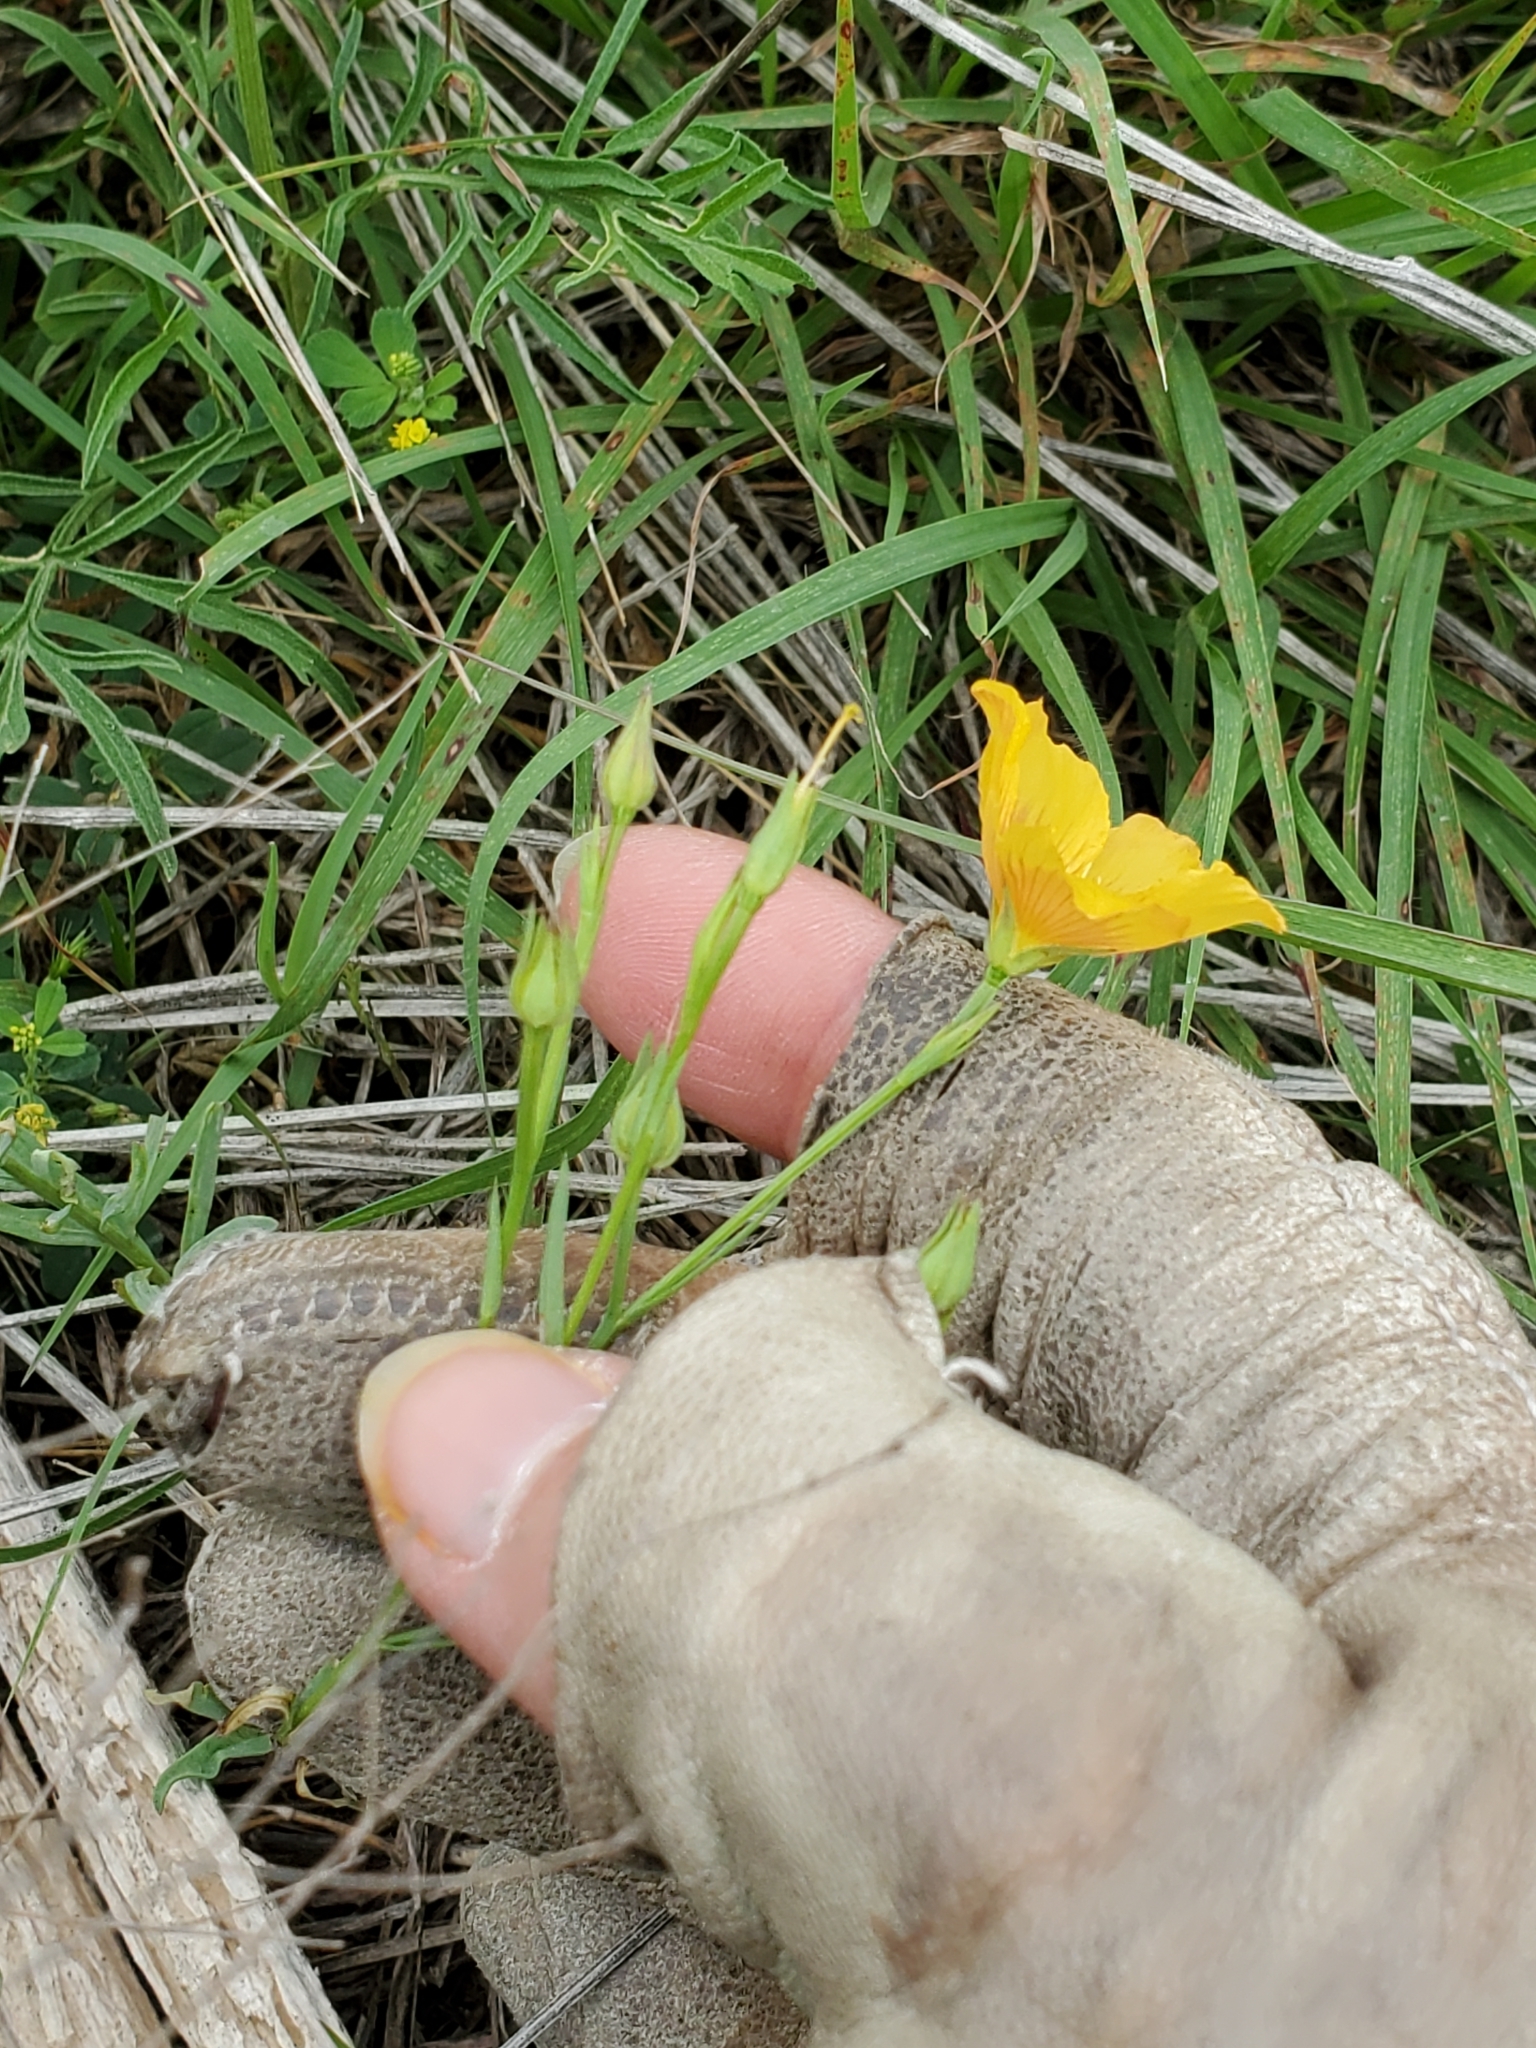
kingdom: Plantae
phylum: Tracheophyta
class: Magnoliopsida
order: Malpighiales
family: Linaceae
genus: Linum
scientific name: Linum rigidum
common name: Stiff-stem flax
